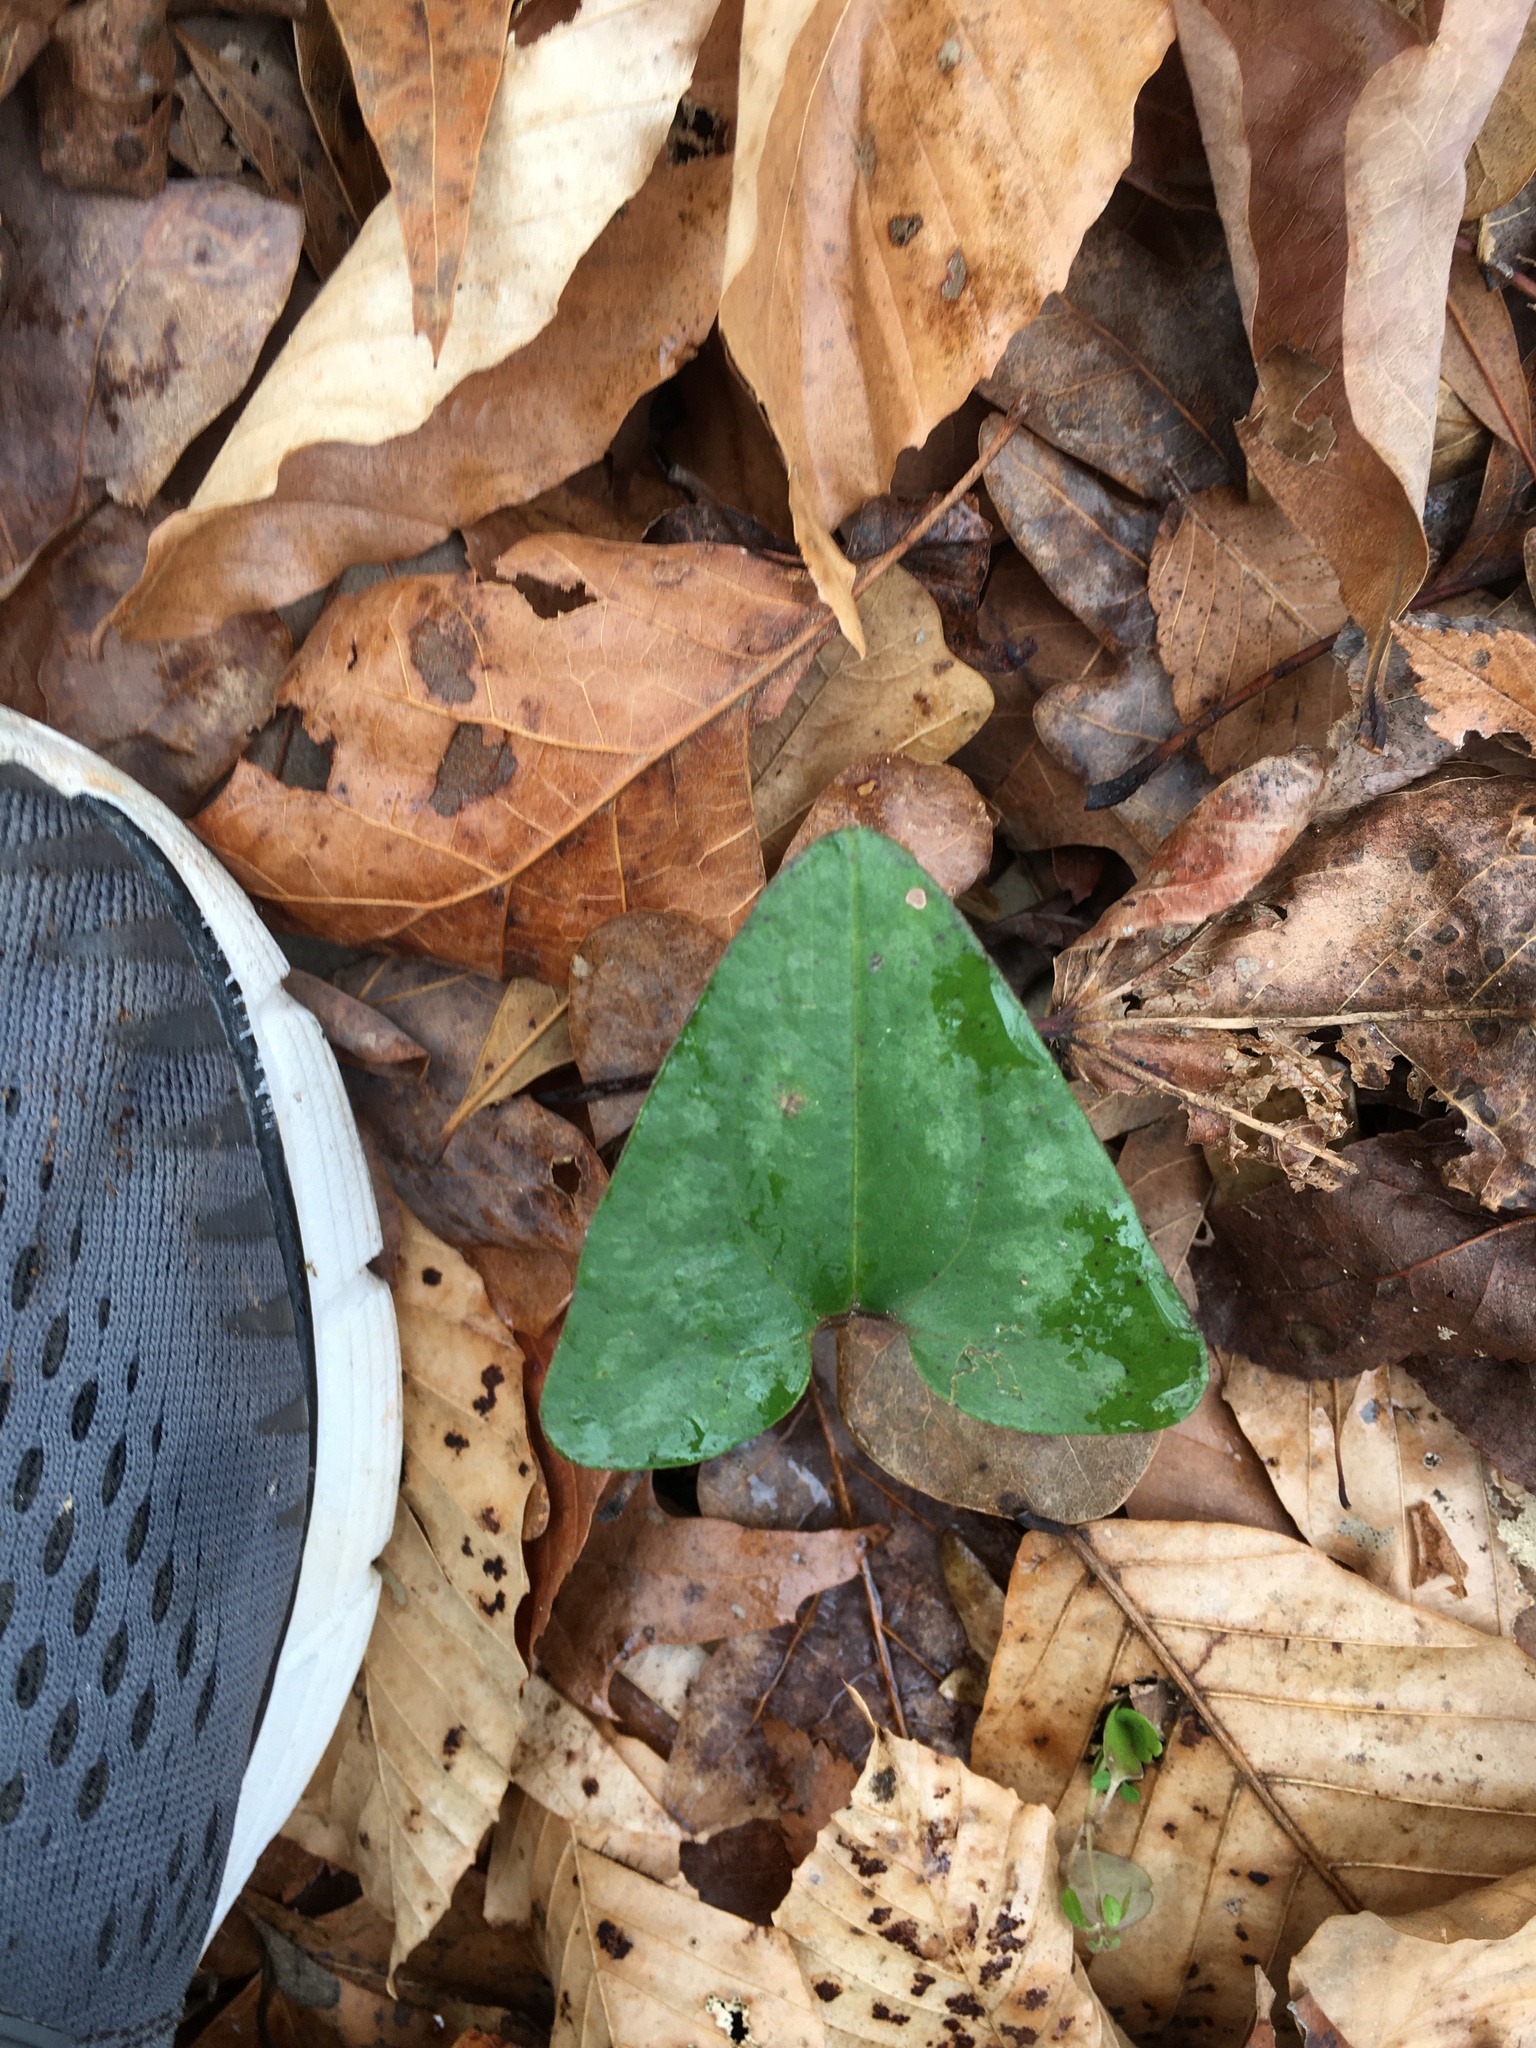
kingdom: Plantae
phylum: Tracheophyta
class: Magnoliopsida
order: Piperales
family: Aristolochiaceae
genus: Hexastylis
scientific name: Hexastylis arifolia
